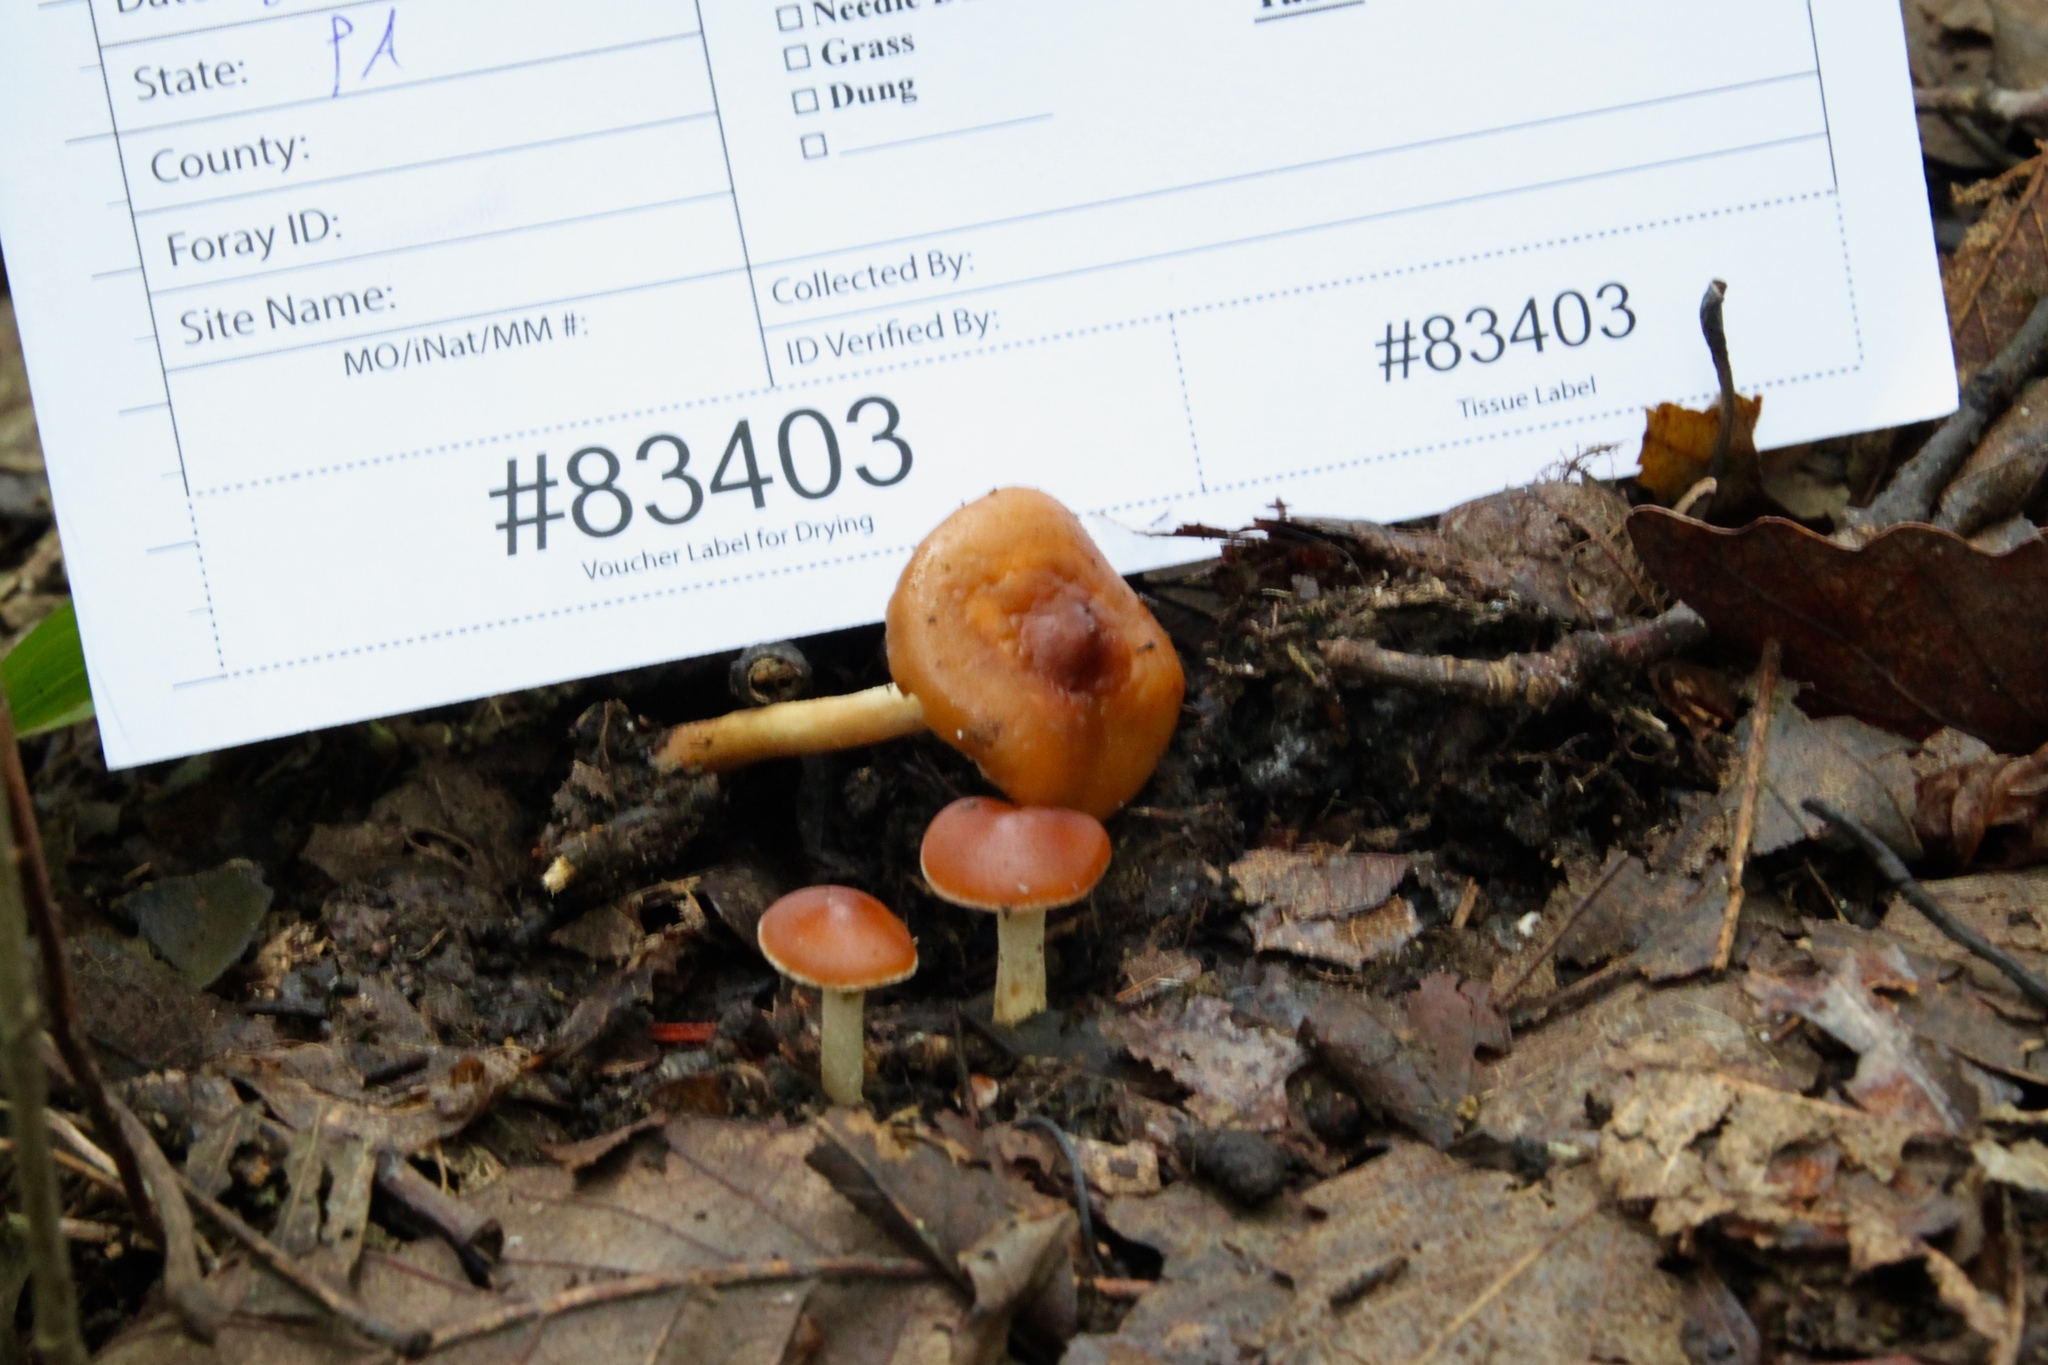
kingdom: Fungi
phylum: Basidiomycota
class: Agaricomycetes
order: Agaricales
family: Strophariaceae
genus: Leratiomyces
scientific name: Leratiomyces ceres
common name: Redlead roundhead
